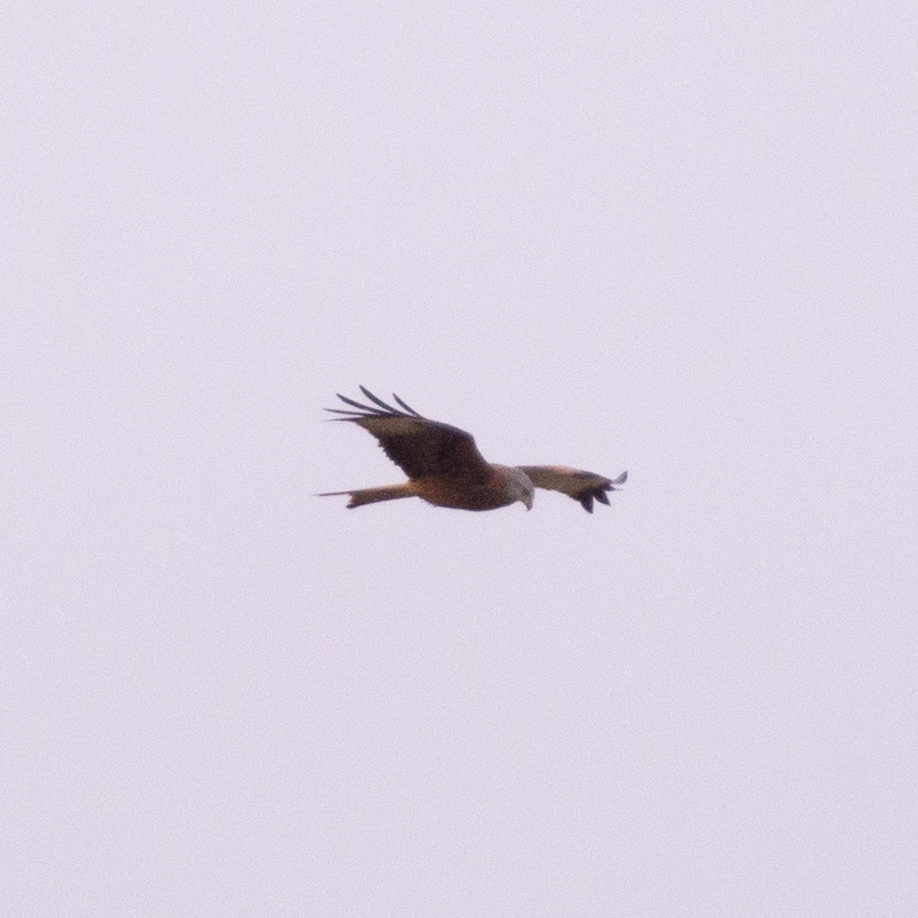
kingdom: Animalia
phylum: Chordata
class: Aves
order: Accipitriformes
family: Accipitridae
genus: Milvus
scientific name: Milvus milvus
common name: Red kite
